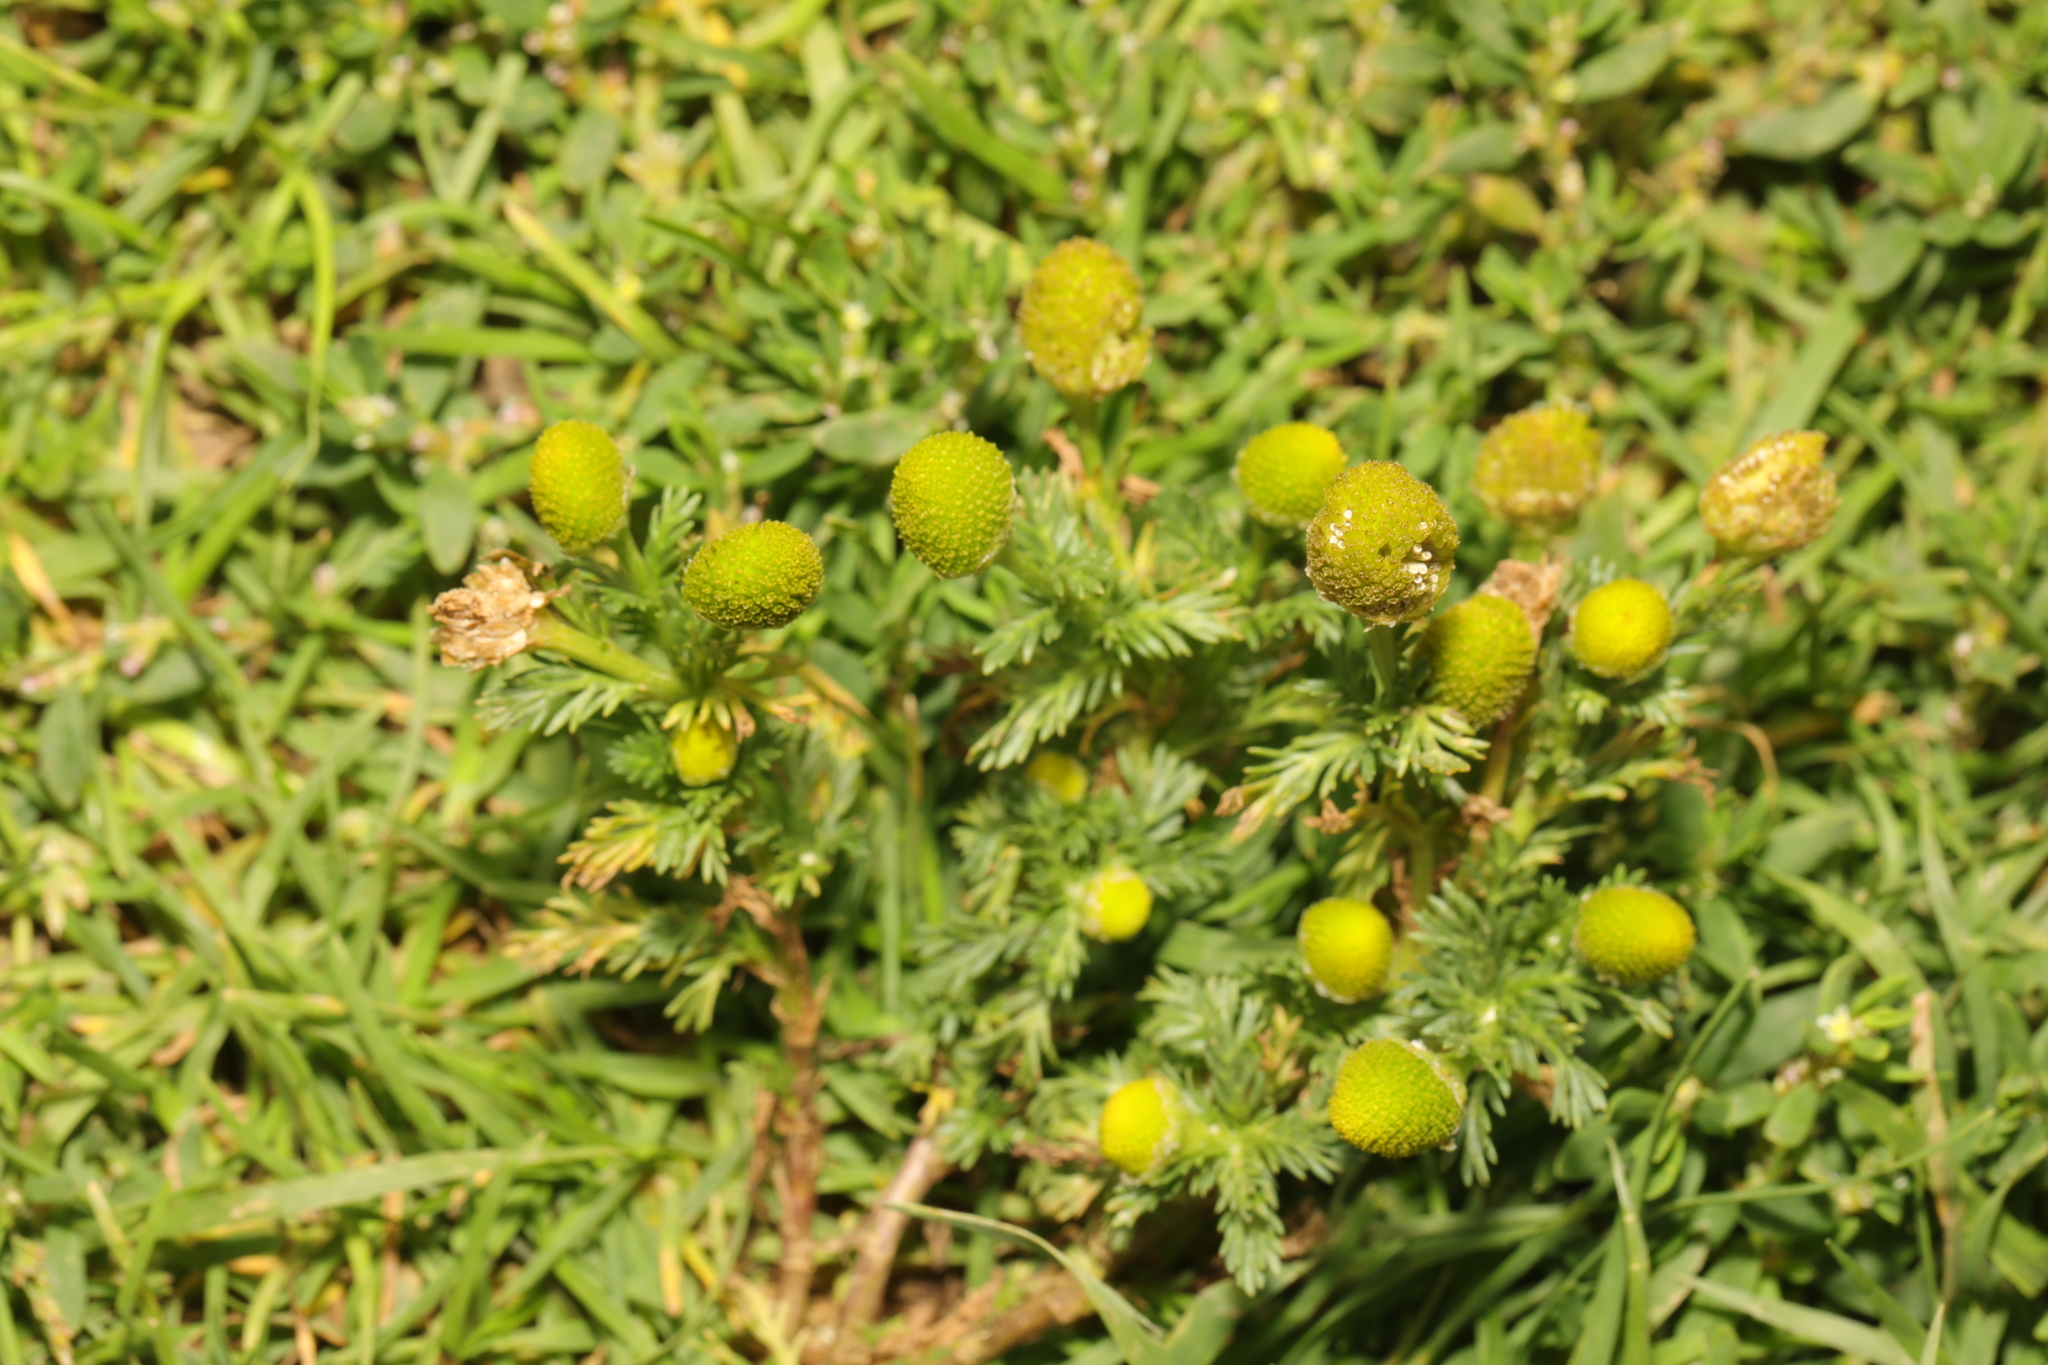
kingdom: Plantae
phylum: Tracheophyta
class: Magnoliopsida
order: Asterales
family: Asteraceae
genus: Matricaria
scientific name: Matricaria discoidea
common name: Disc mayweed
